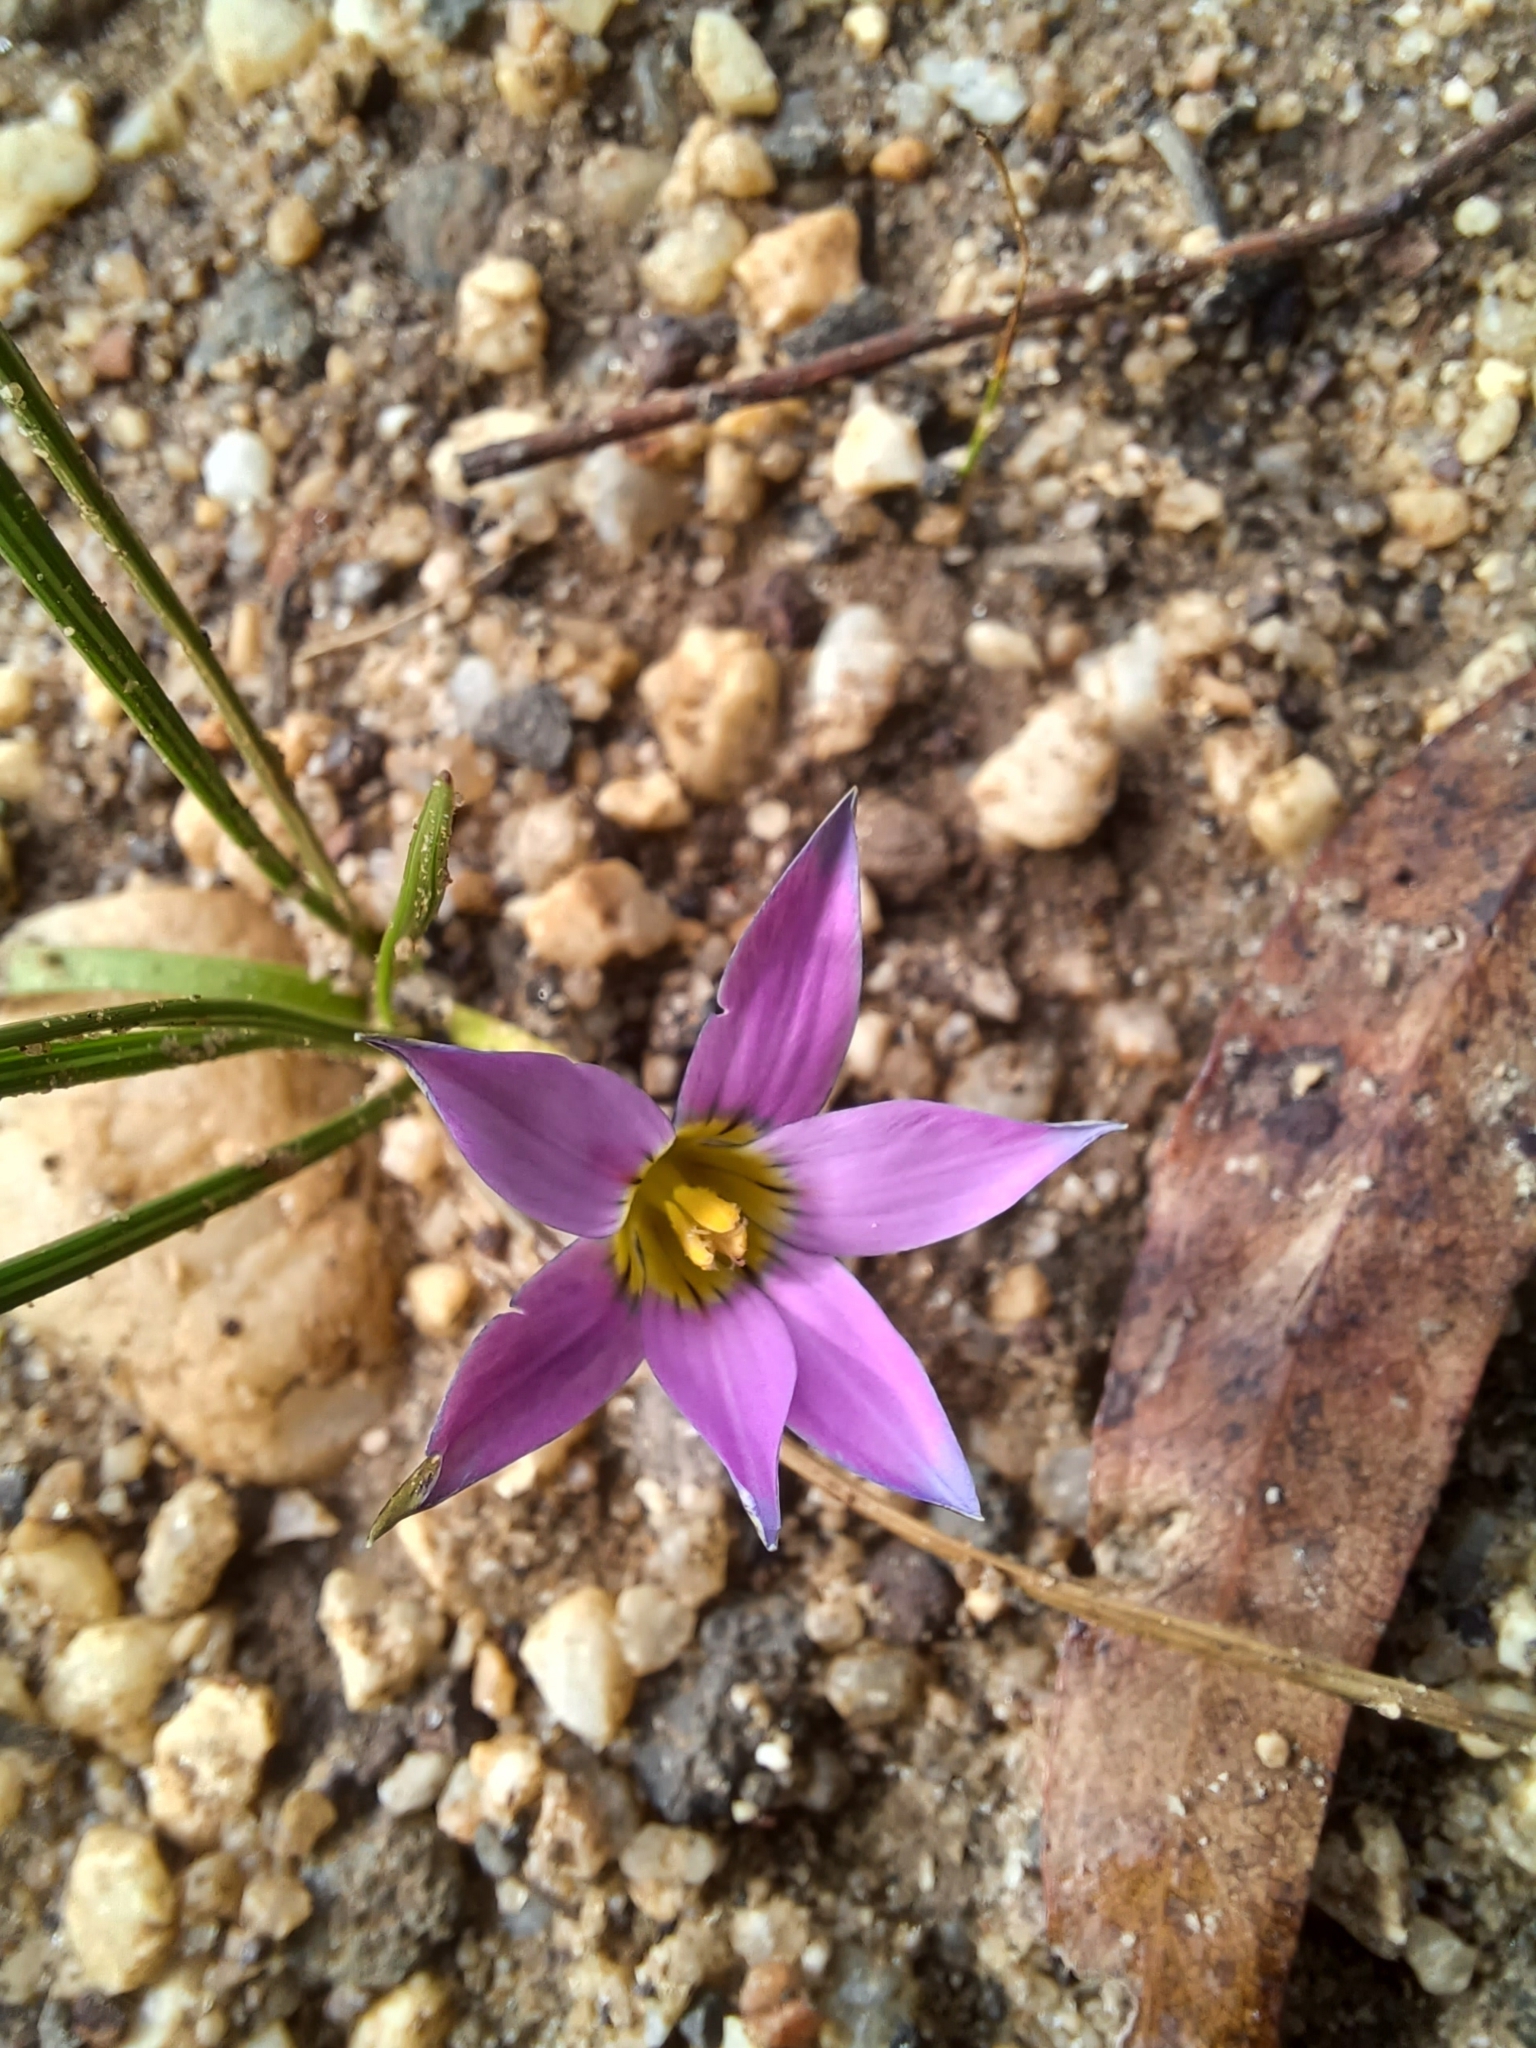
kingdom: Plantae
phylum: Tracheophyta
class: Liliopsida
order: Asparagales
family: Iridaceae
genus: Romulea
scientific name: Romulea rosea
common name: Oniongrass
